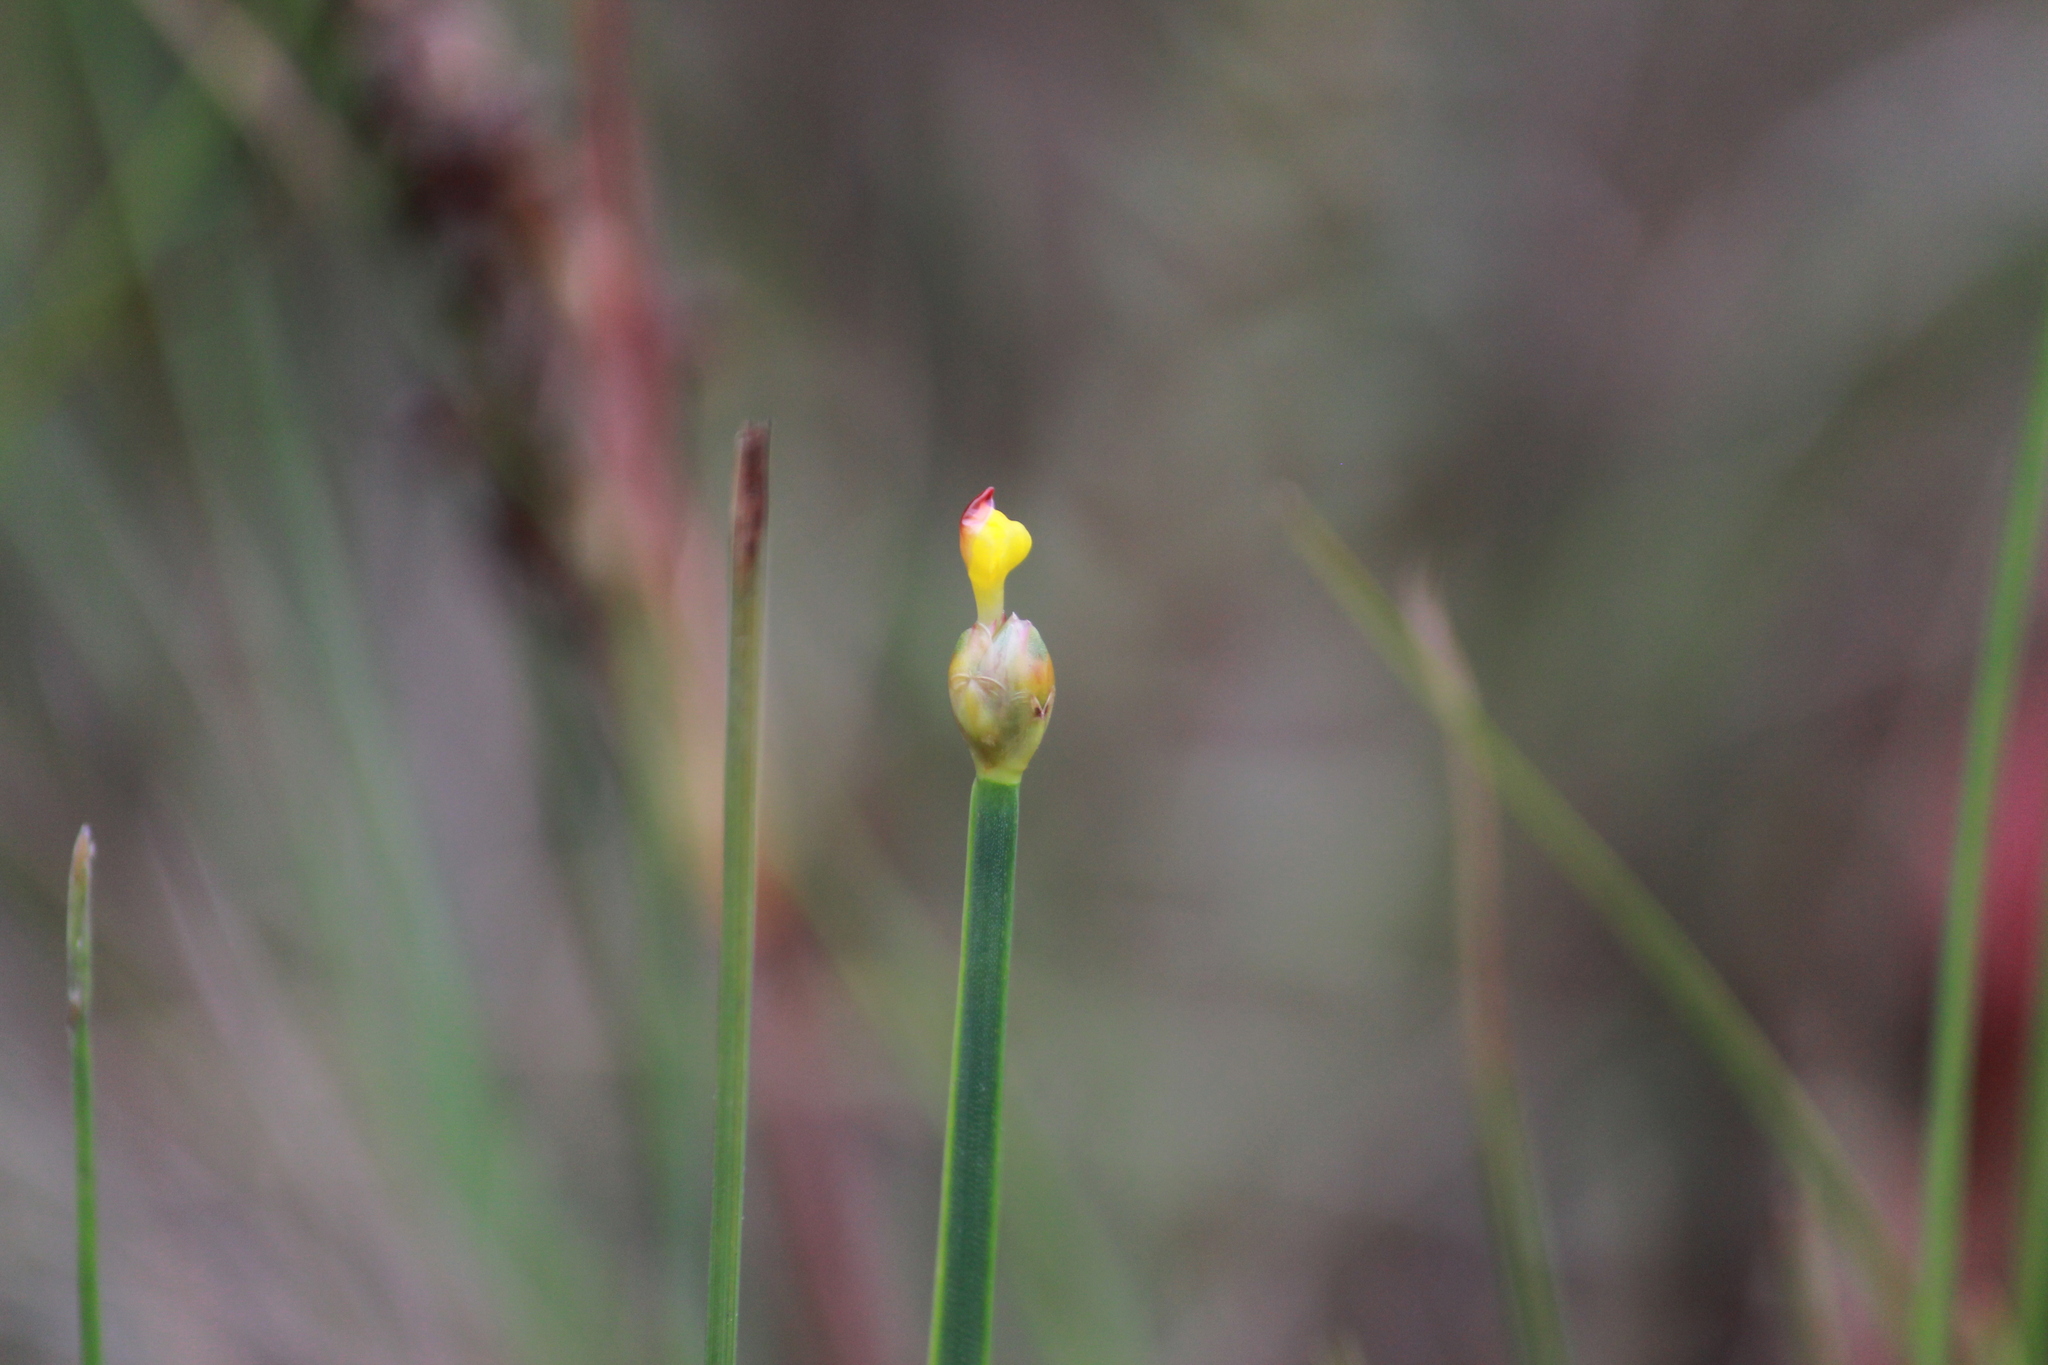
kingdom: Plantae
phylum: Tracheophyta
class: Liliopsida
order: Poales
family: Xyridaceae
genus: Xyris
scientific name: Xyris capensis
